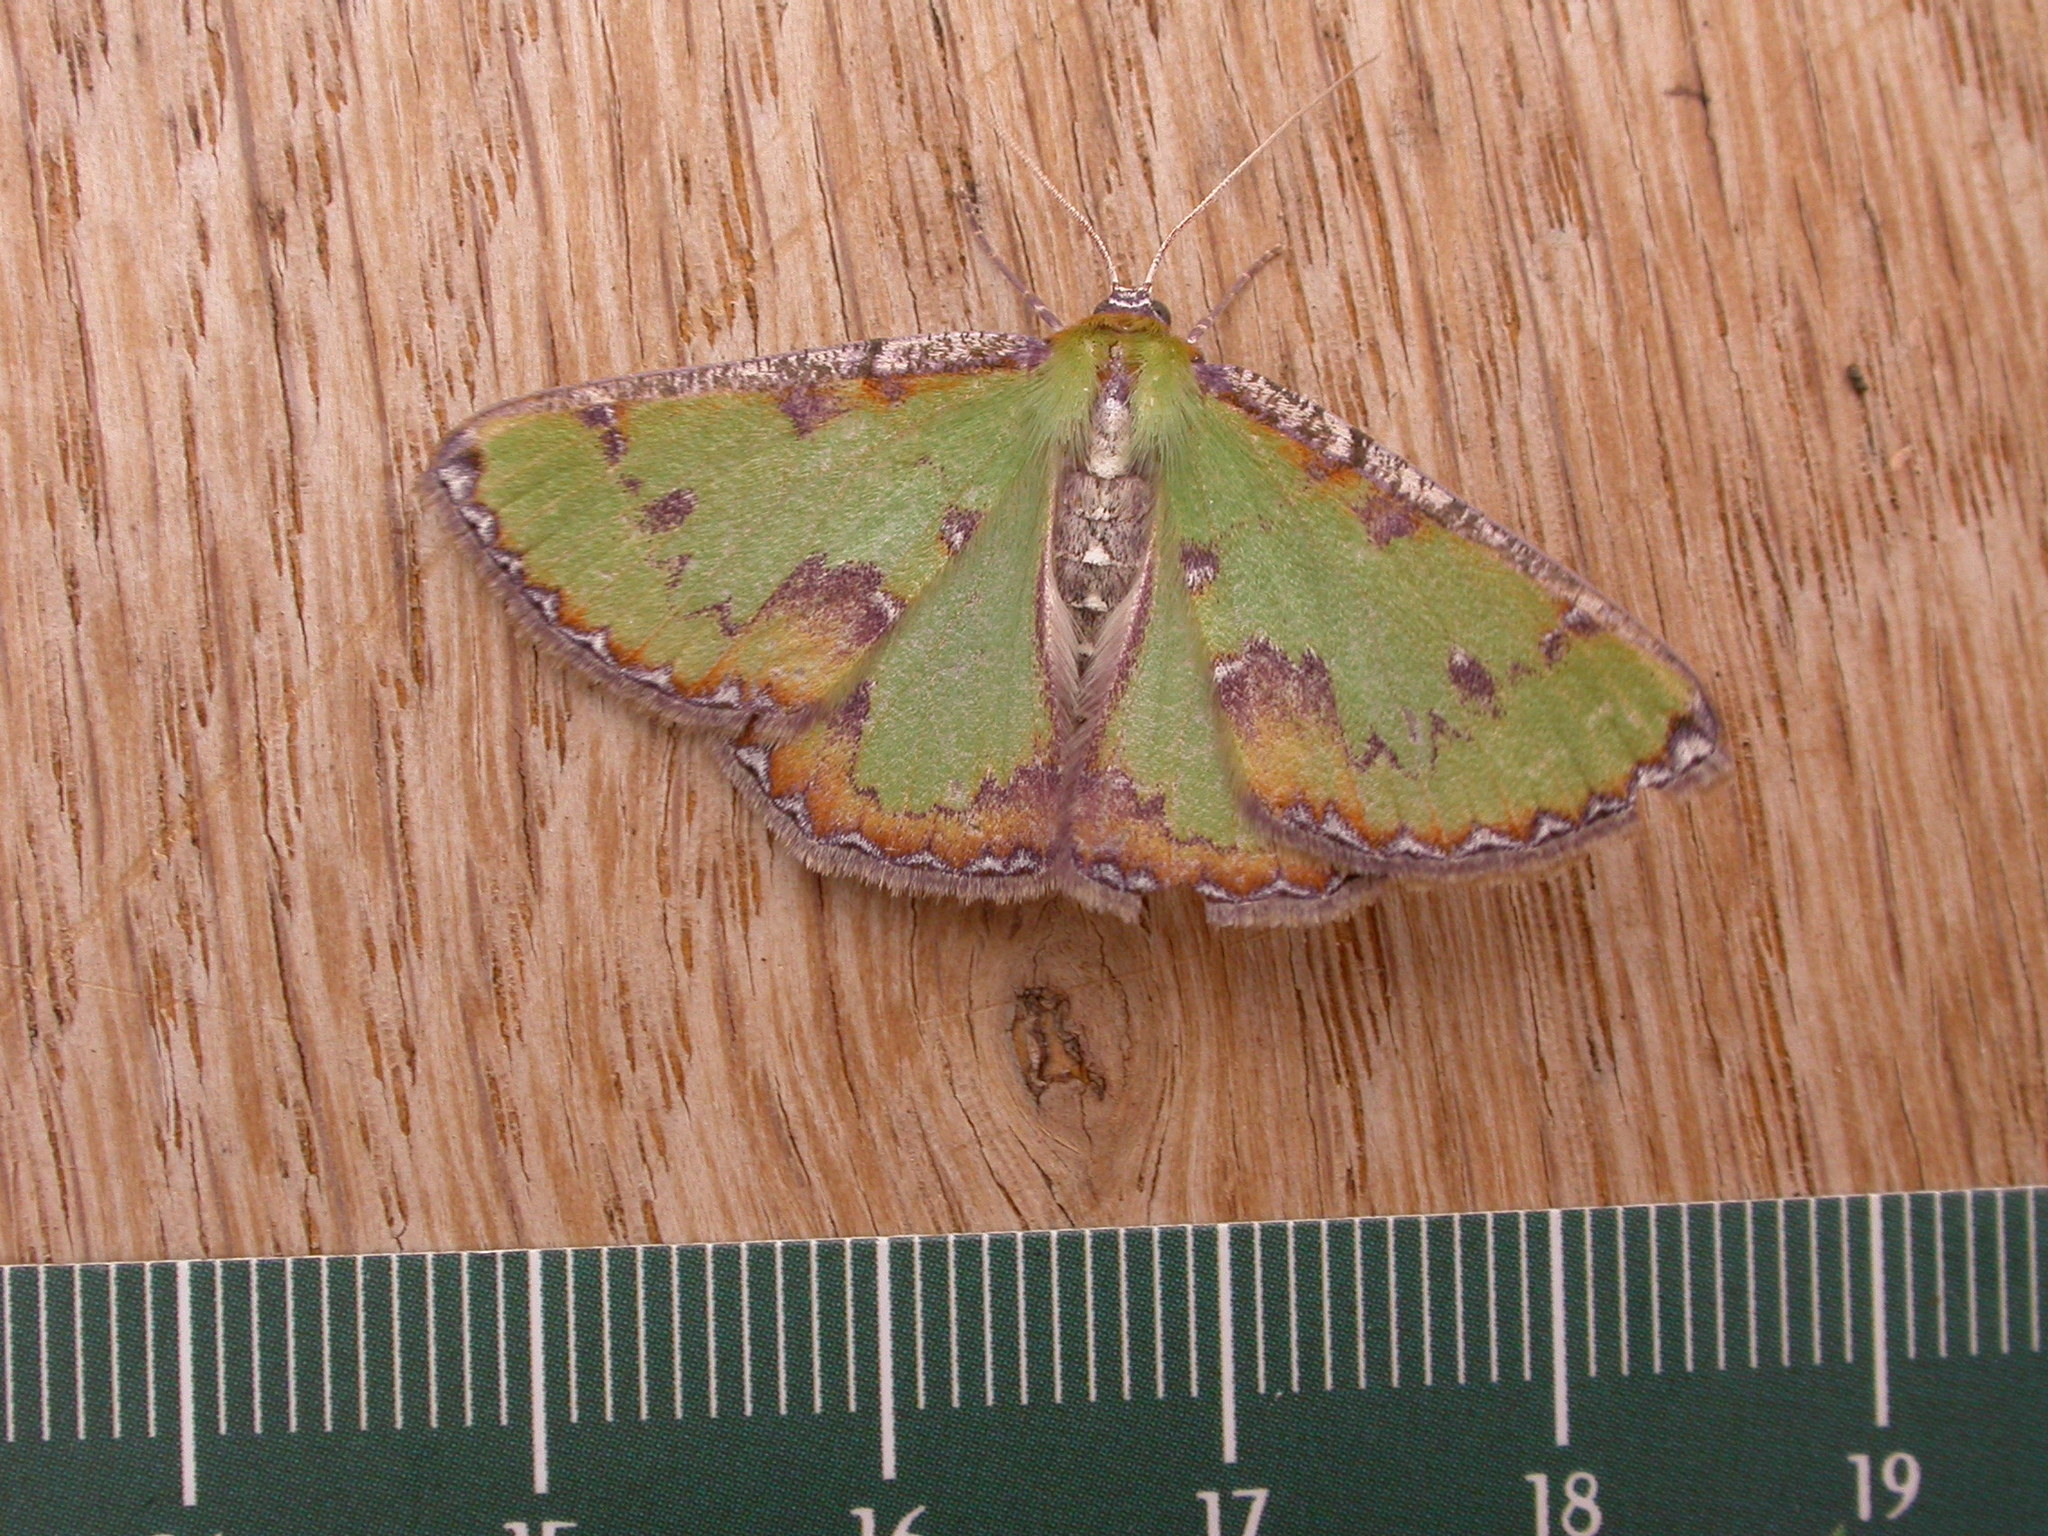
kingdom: Animalia
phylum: Arthropoda
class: Insecta
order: Lepidoptera
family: Geometridae
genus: Eucyclodes
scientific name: Eucyclodes buprestaria
